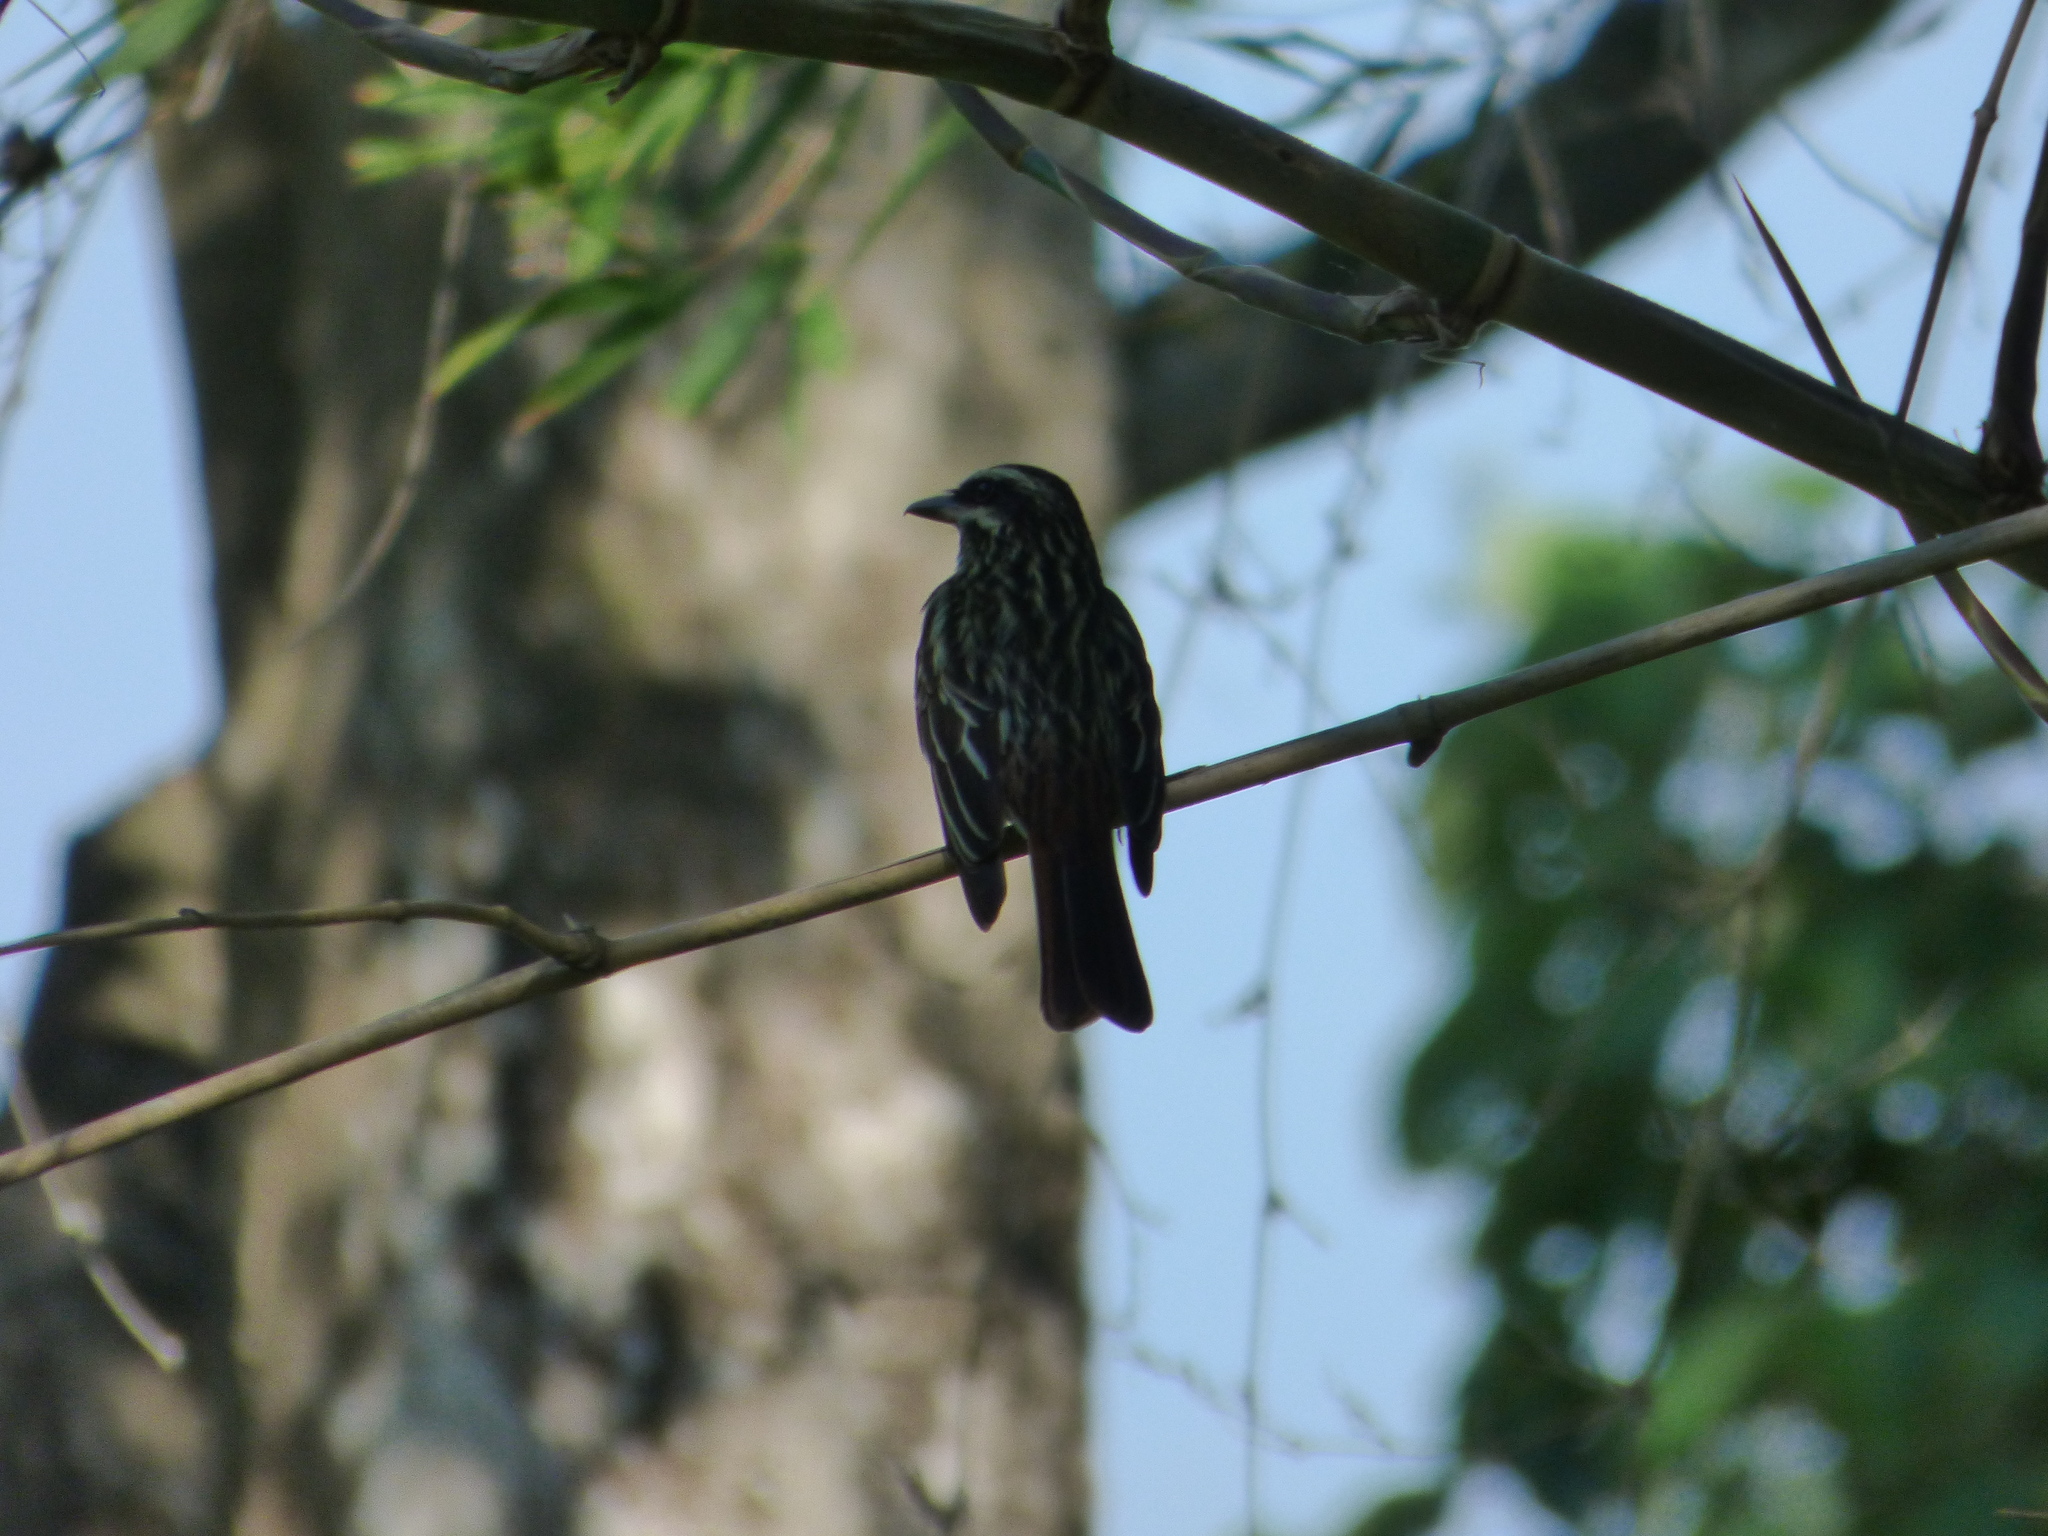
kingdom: Animalia
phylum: Chordata
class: Aves
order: Passeriformes
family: Tyrannidae
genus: Myiodynastes
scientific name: Myiodynastes maculatus
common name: Streaked flycatcher
